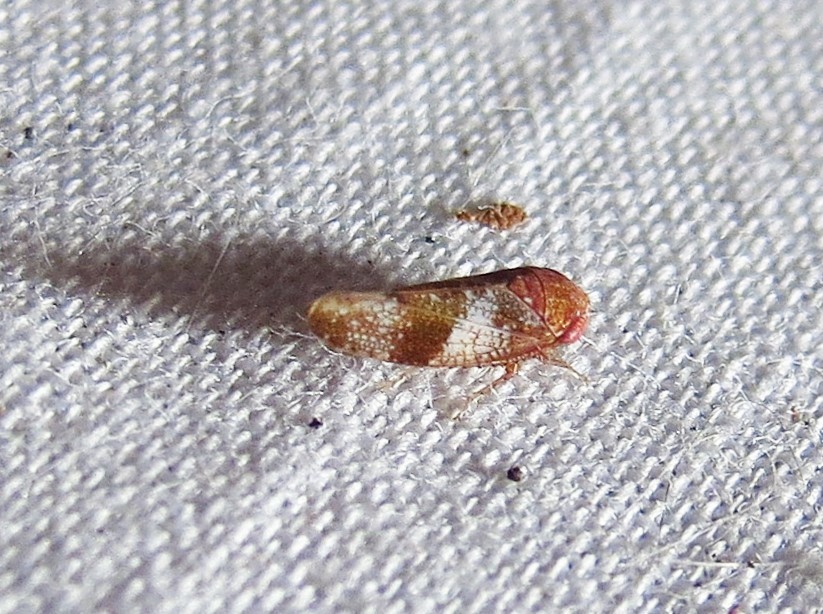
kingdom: Animalia
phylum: Arthropoda
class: Insecta
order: Hemiptera
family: Cicadellidae
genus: Norvellina
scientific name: Norvellina helenae
